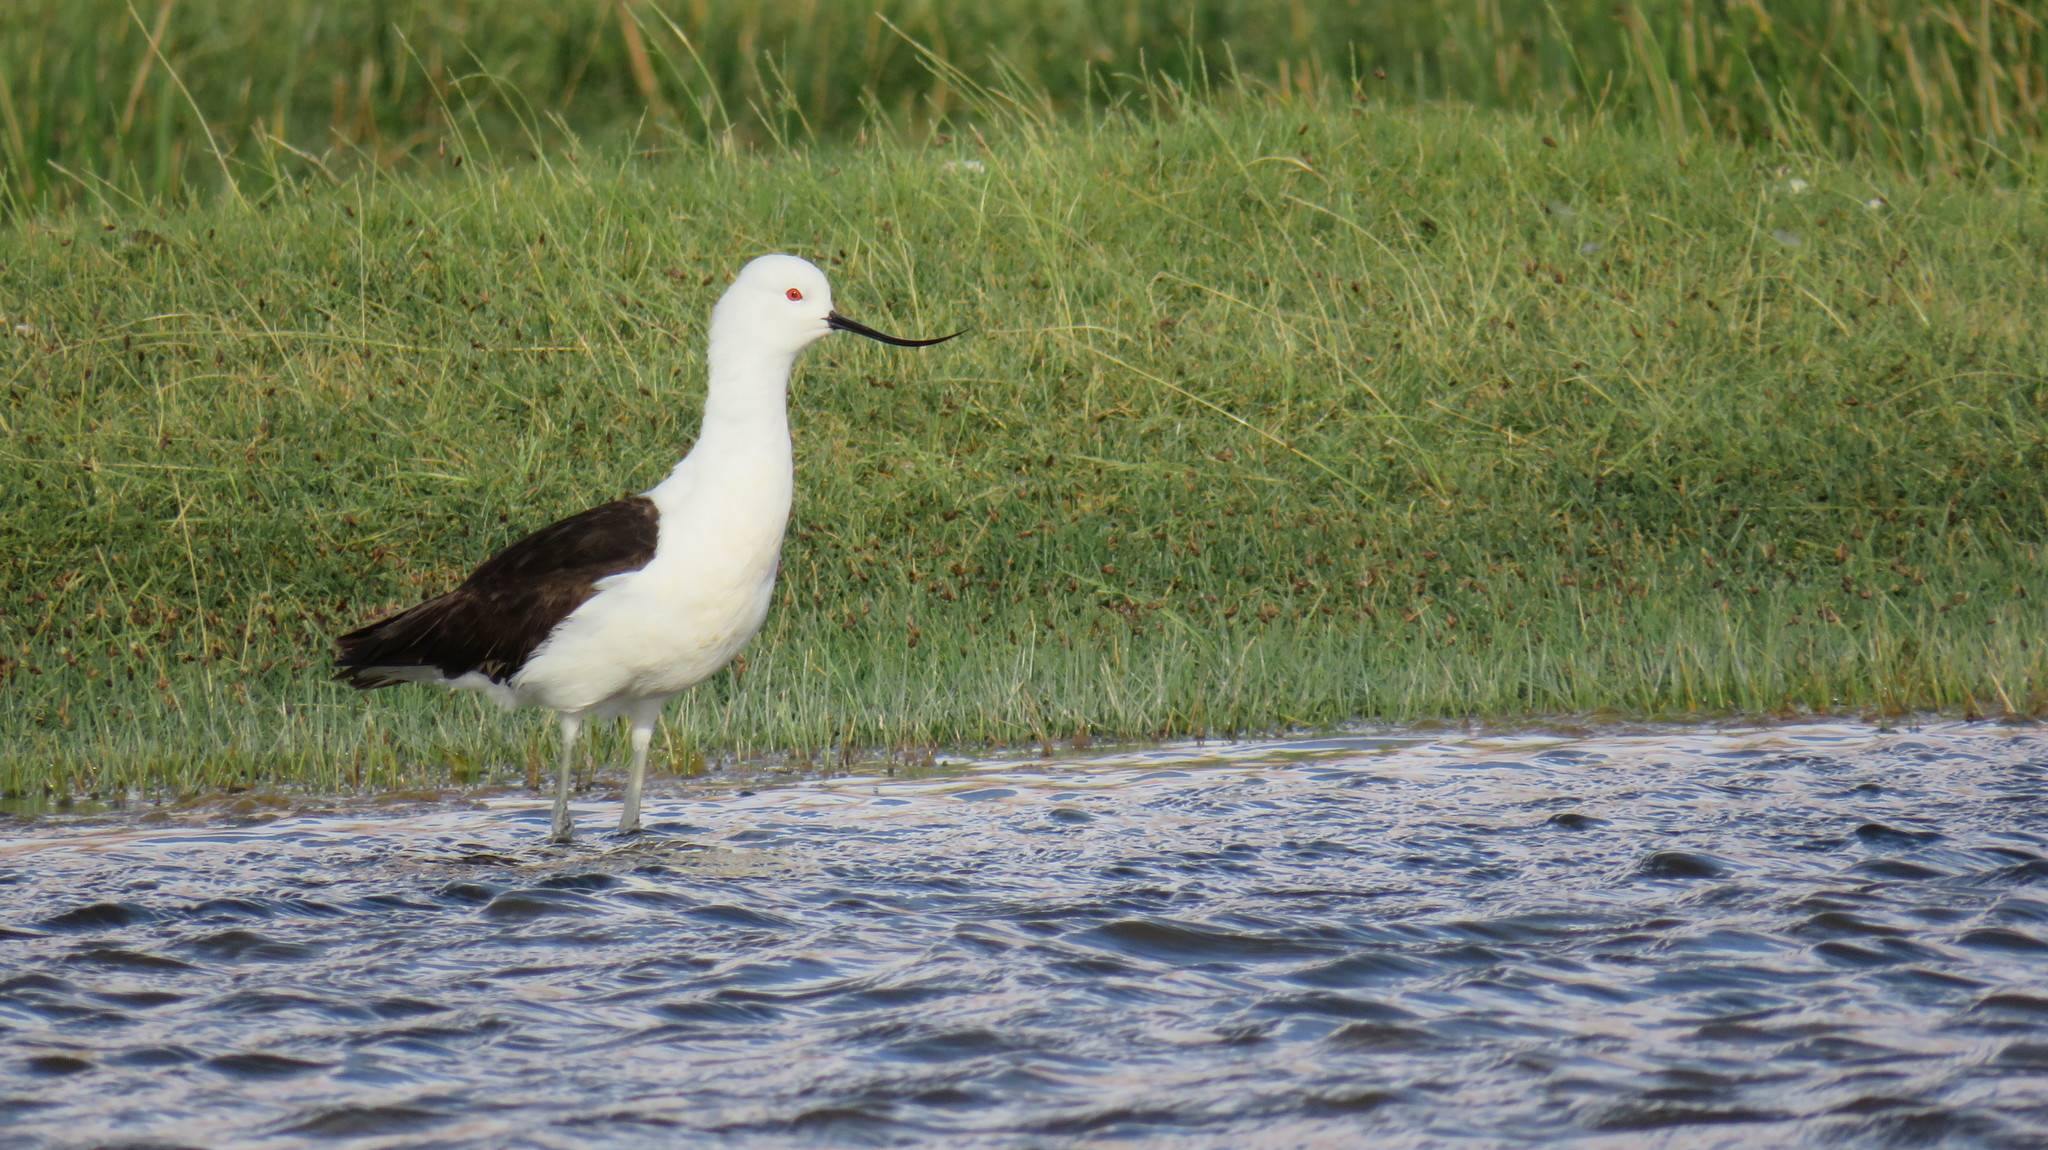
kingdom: Animalia
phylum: Chordata
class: Aves
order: Charadriiformes
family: Recurvirostridae
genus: Recurvirostra
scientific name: Recurvirostra andina
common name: Andean avocet
